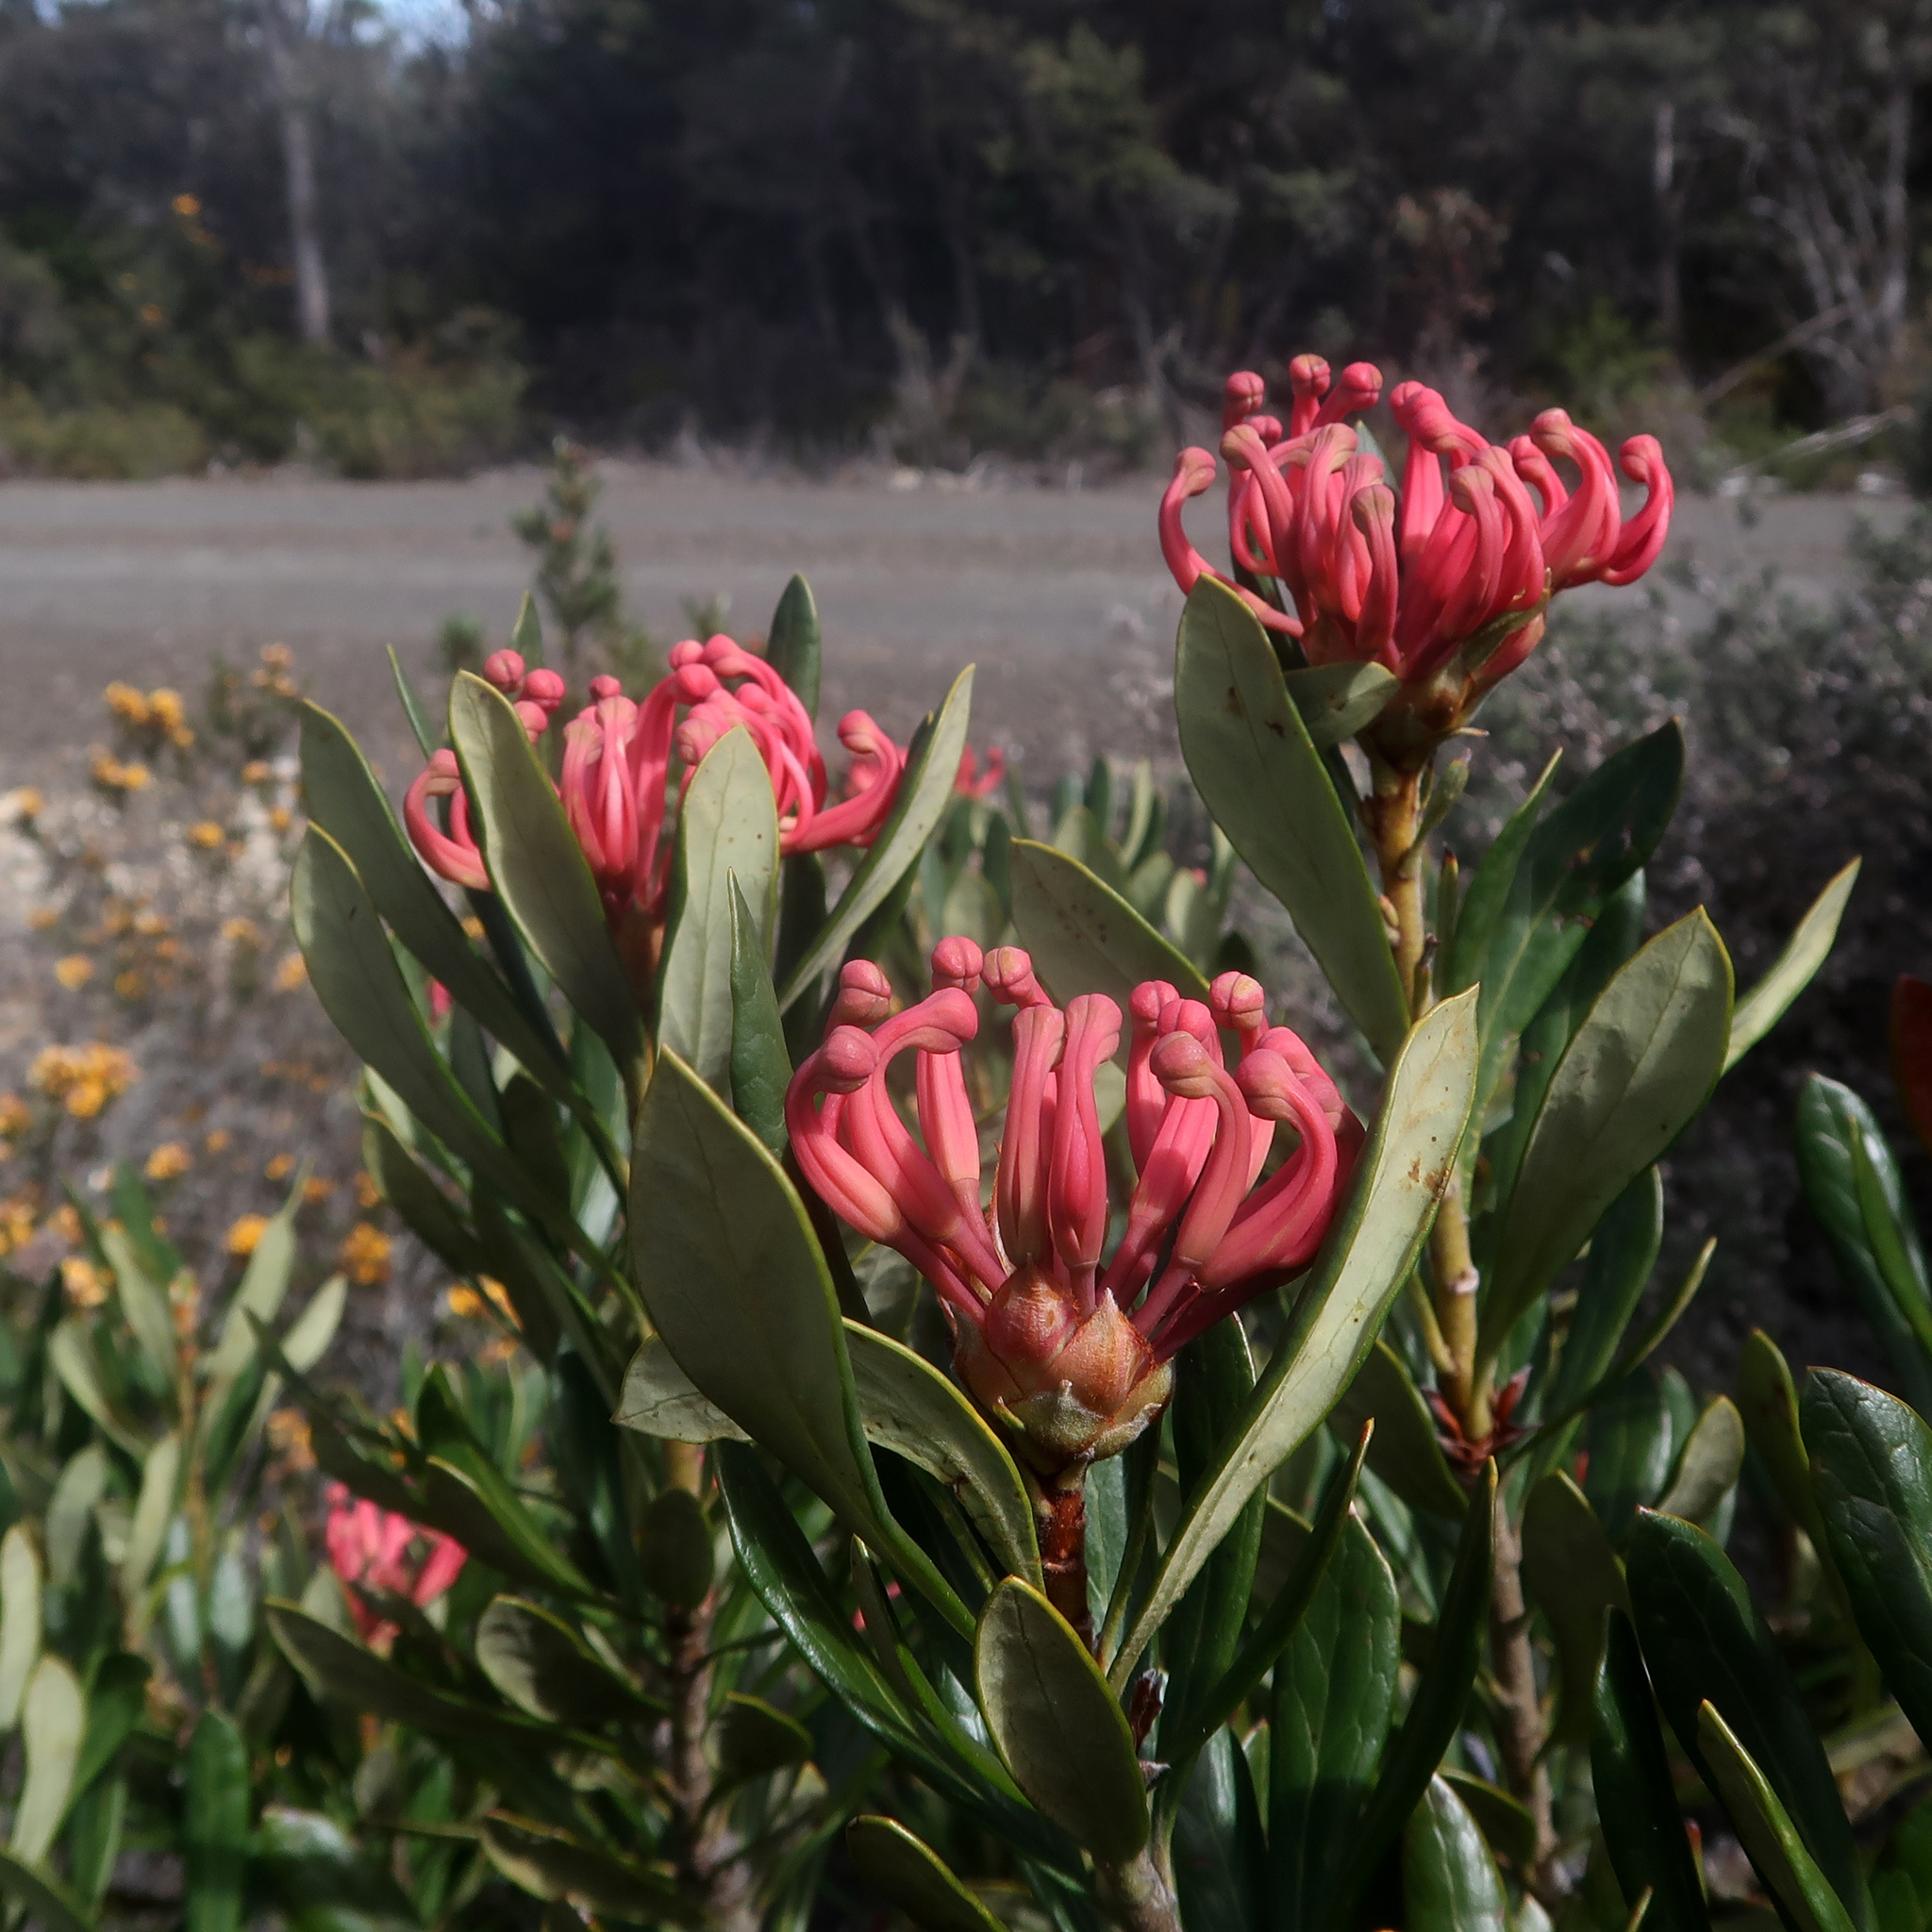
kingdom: Plantae
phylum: Tracheophyta
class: Magnoliopsida
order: Proteales
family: Proteaceae
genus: Telopea
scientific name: Telopea truncata
